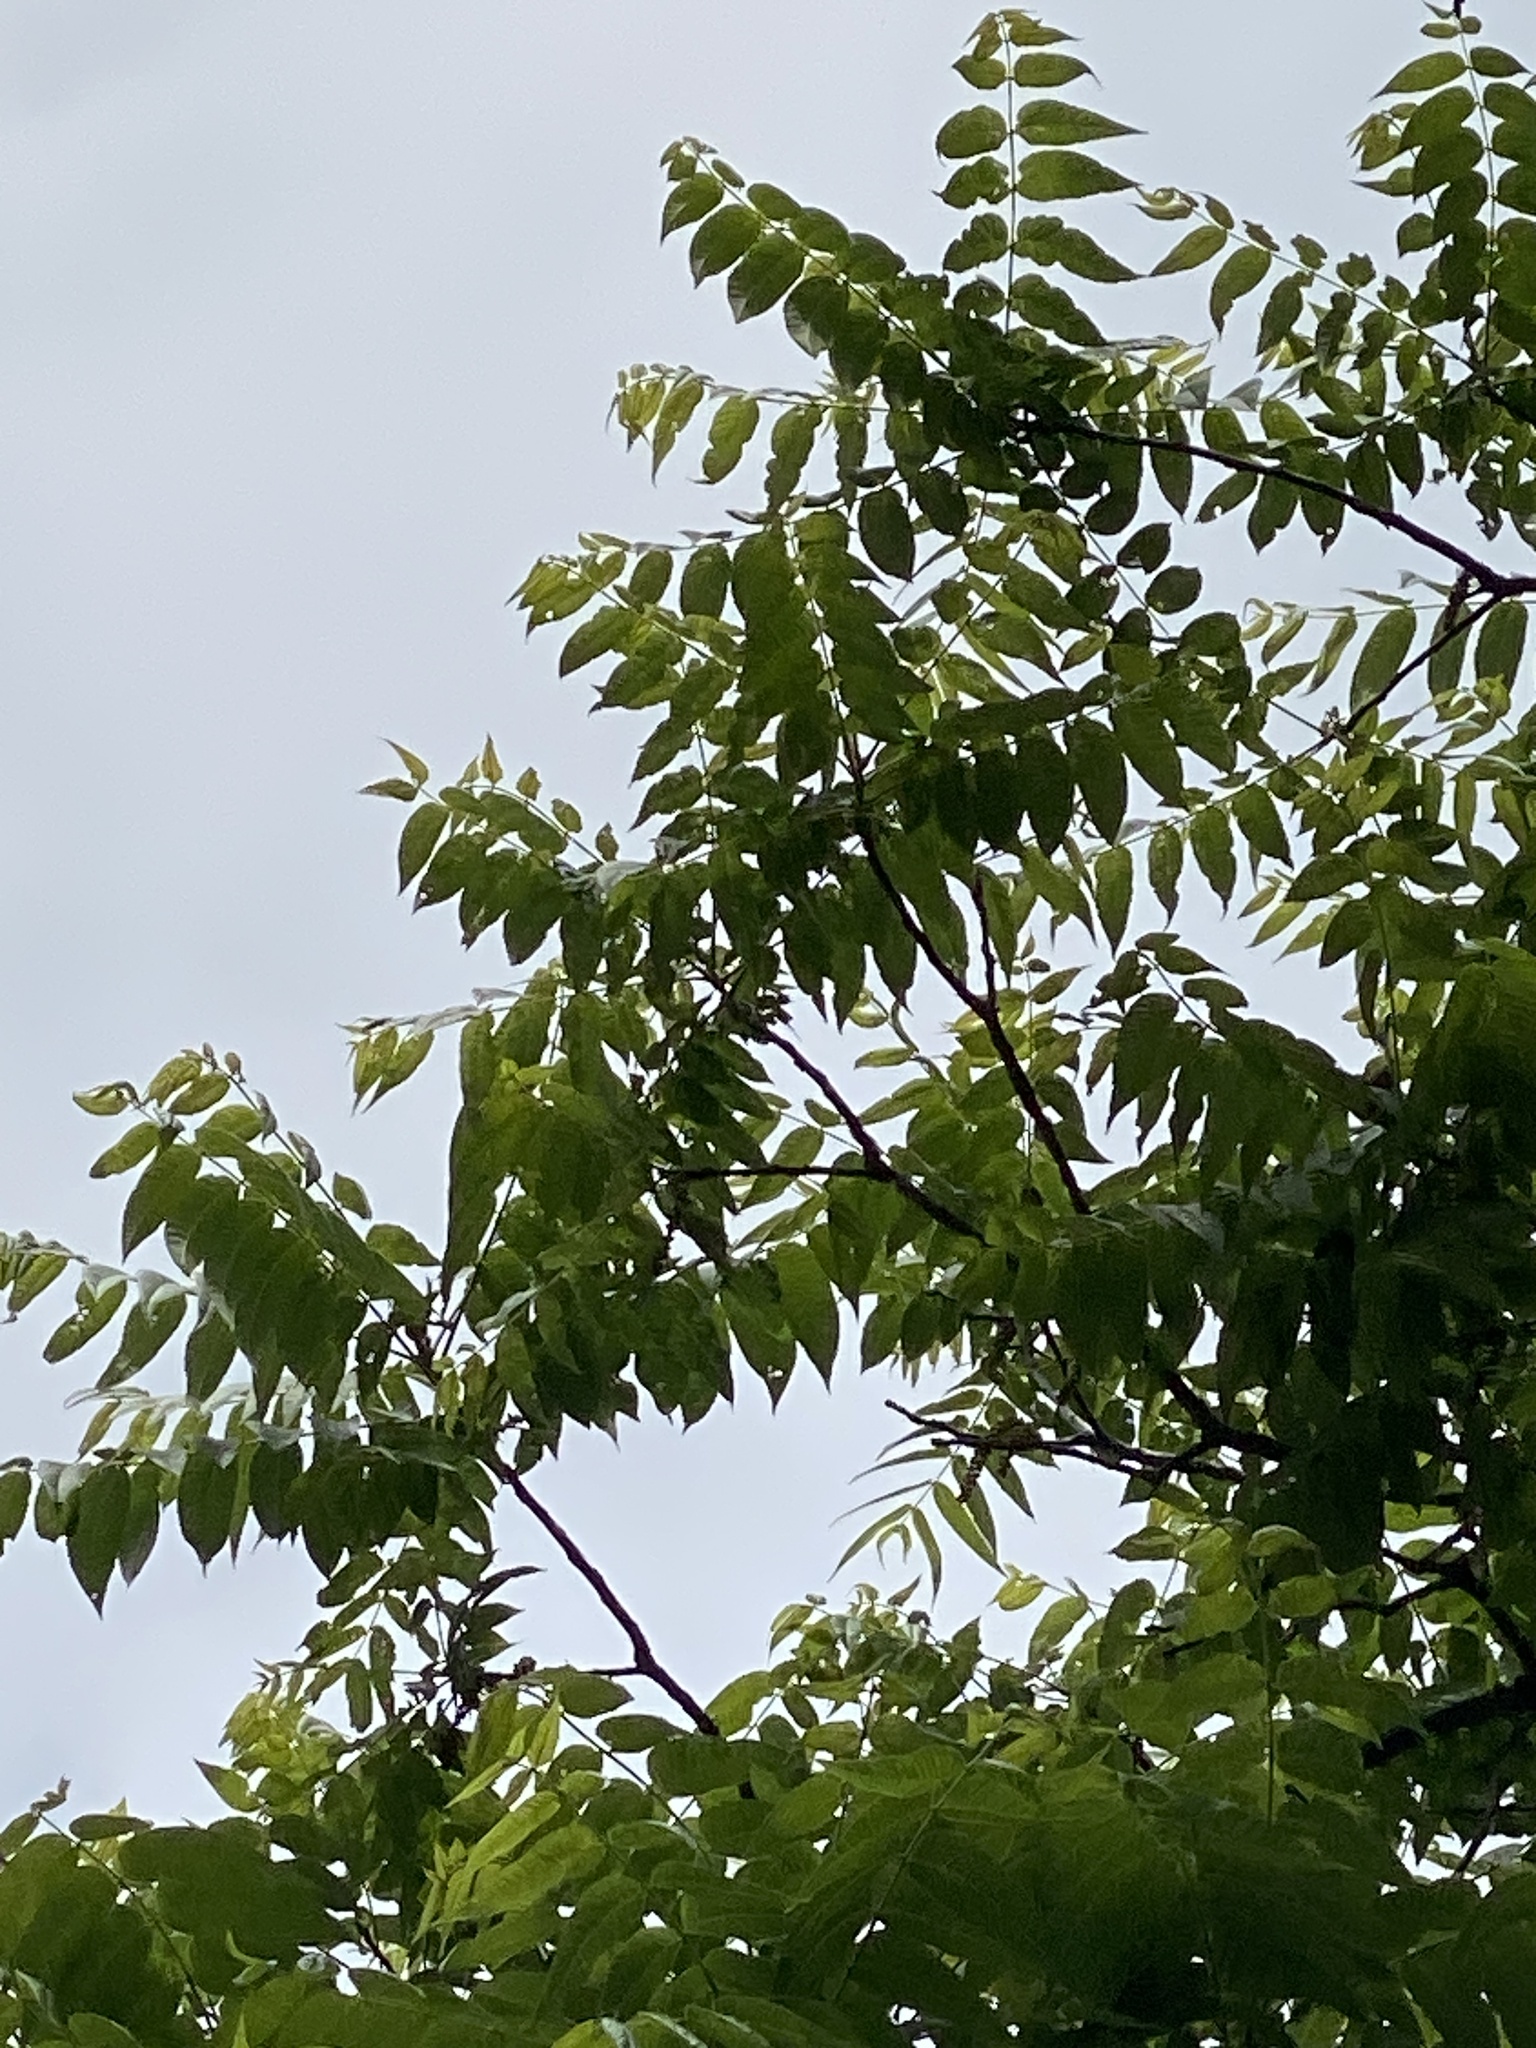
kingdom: Plantae
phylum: Tracheophyta
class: Magnoliopsida
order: Fagales
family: Juglandaceae
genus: Juglans
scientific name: Juglans nigra
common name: Black walnut
